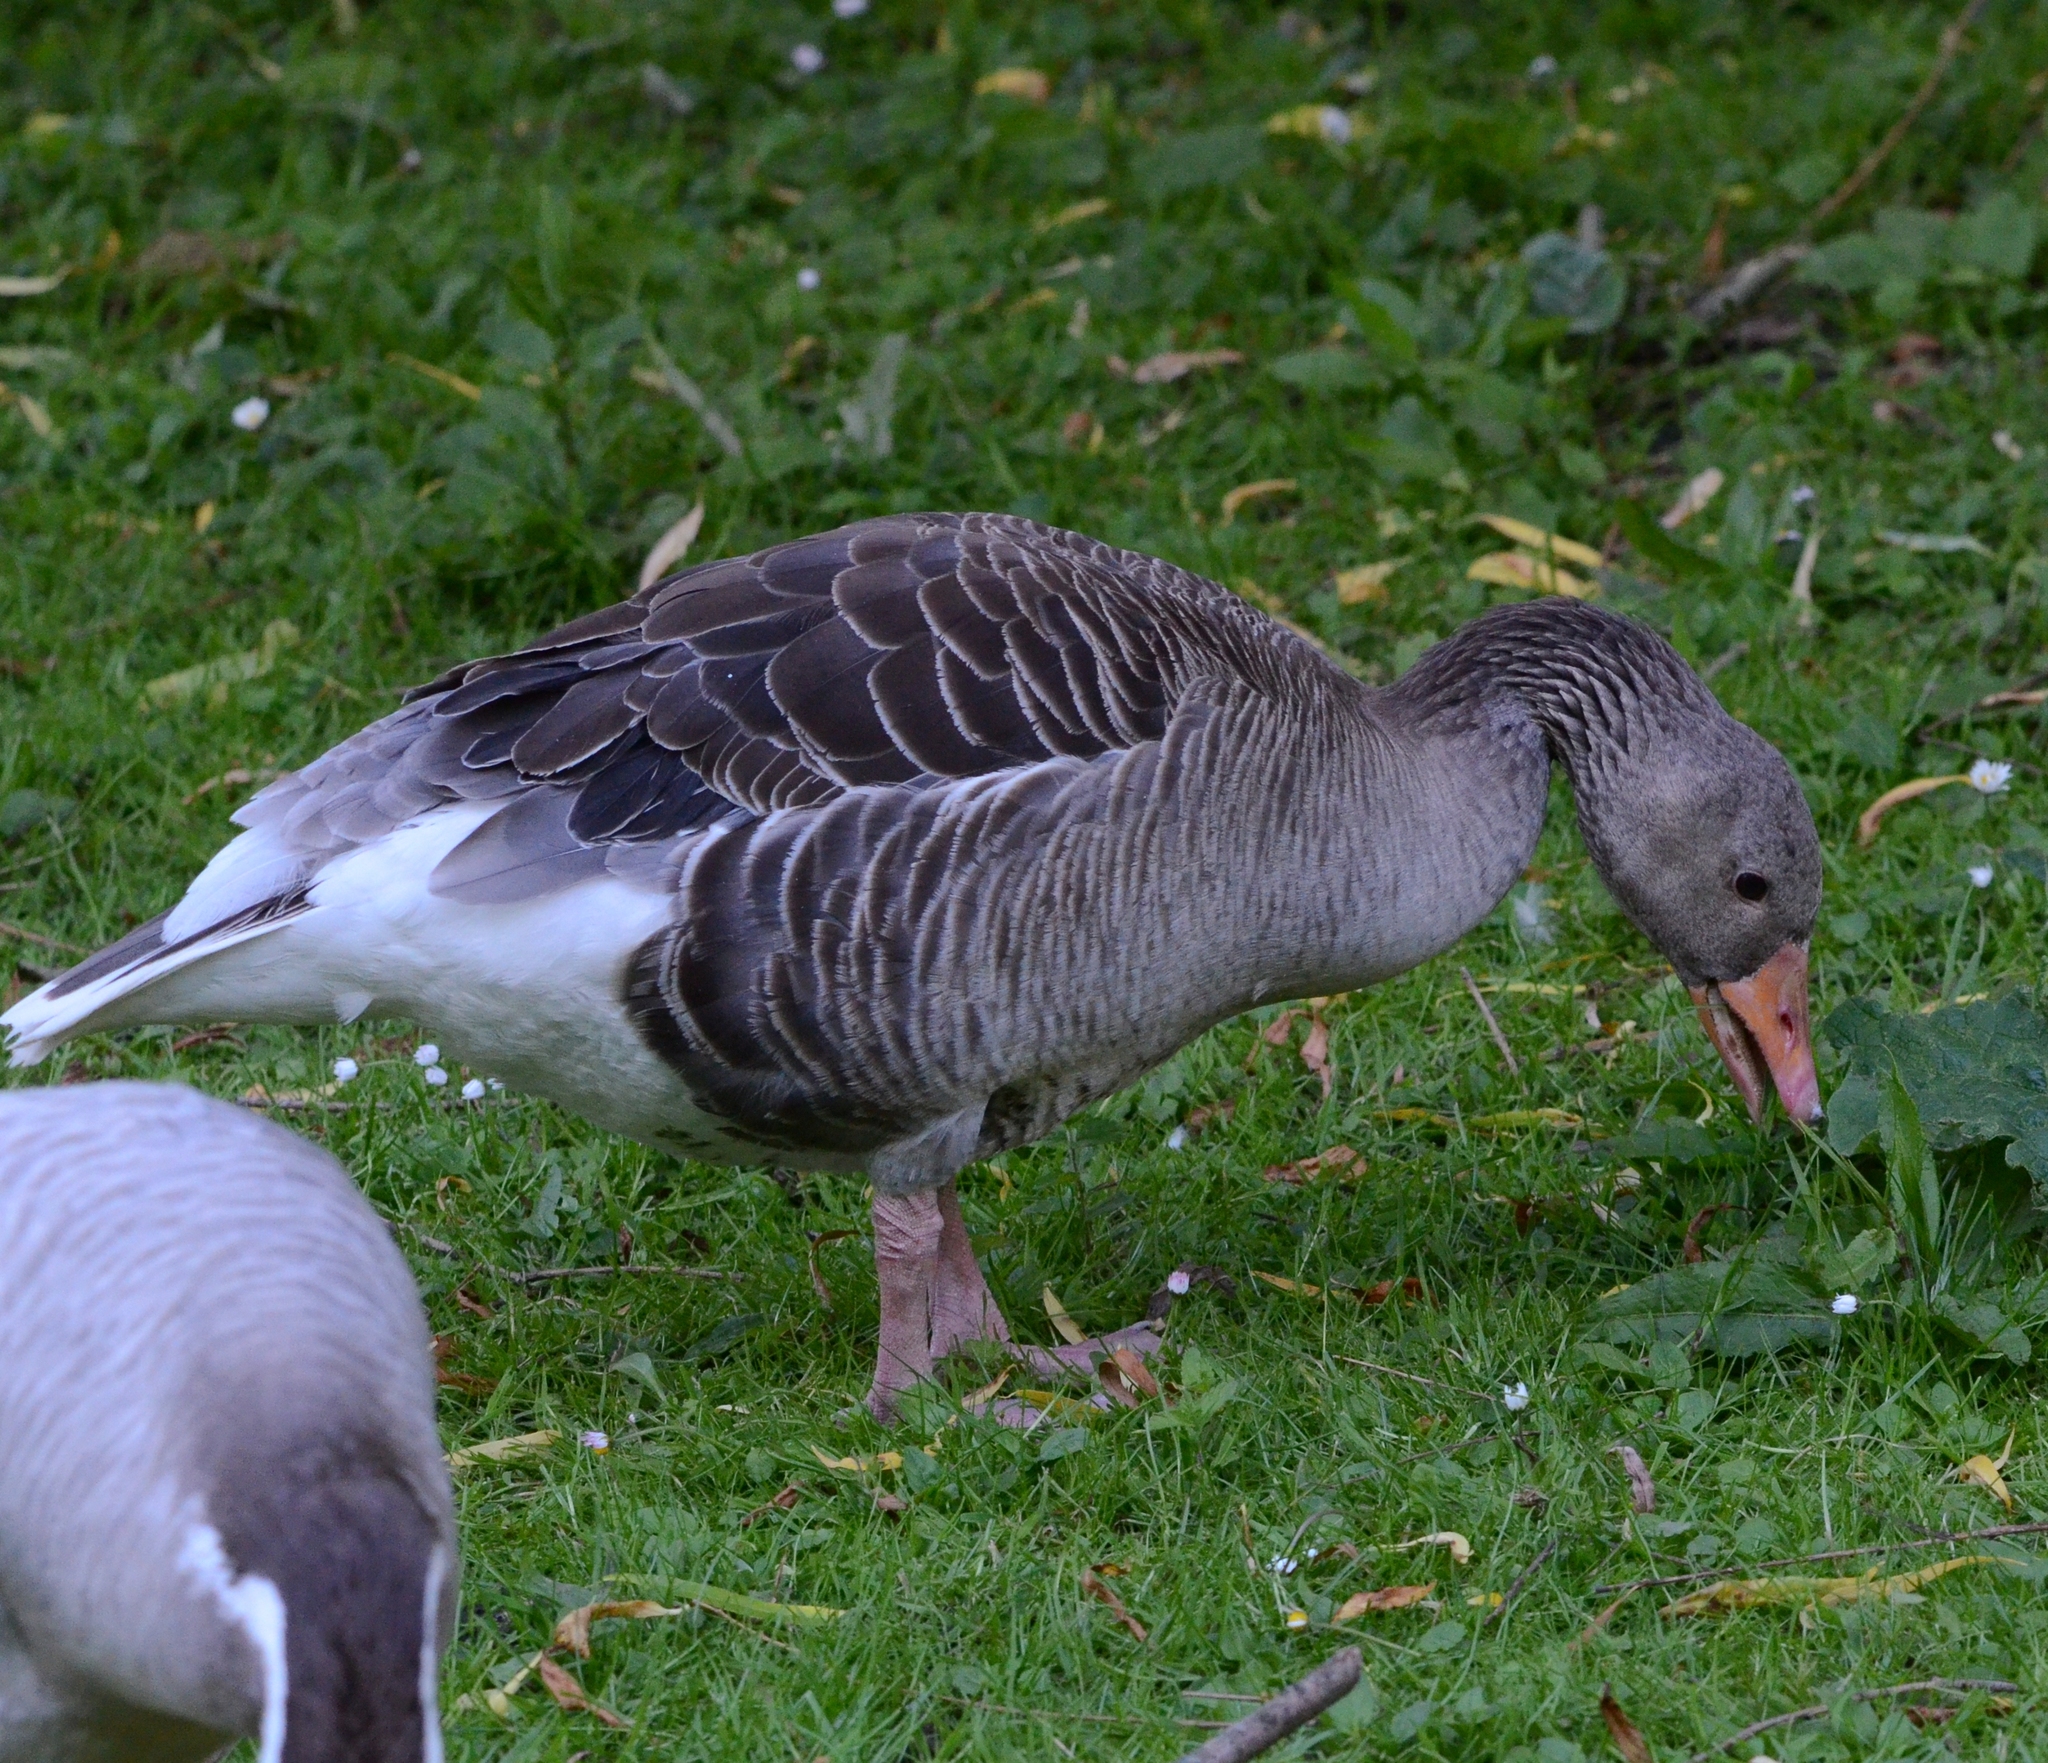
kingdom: Animalia
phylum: Chordata
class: Aves
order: Anseriformes
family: Anatidae
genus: Anser
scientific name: Anser anser
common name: Greylag goose
